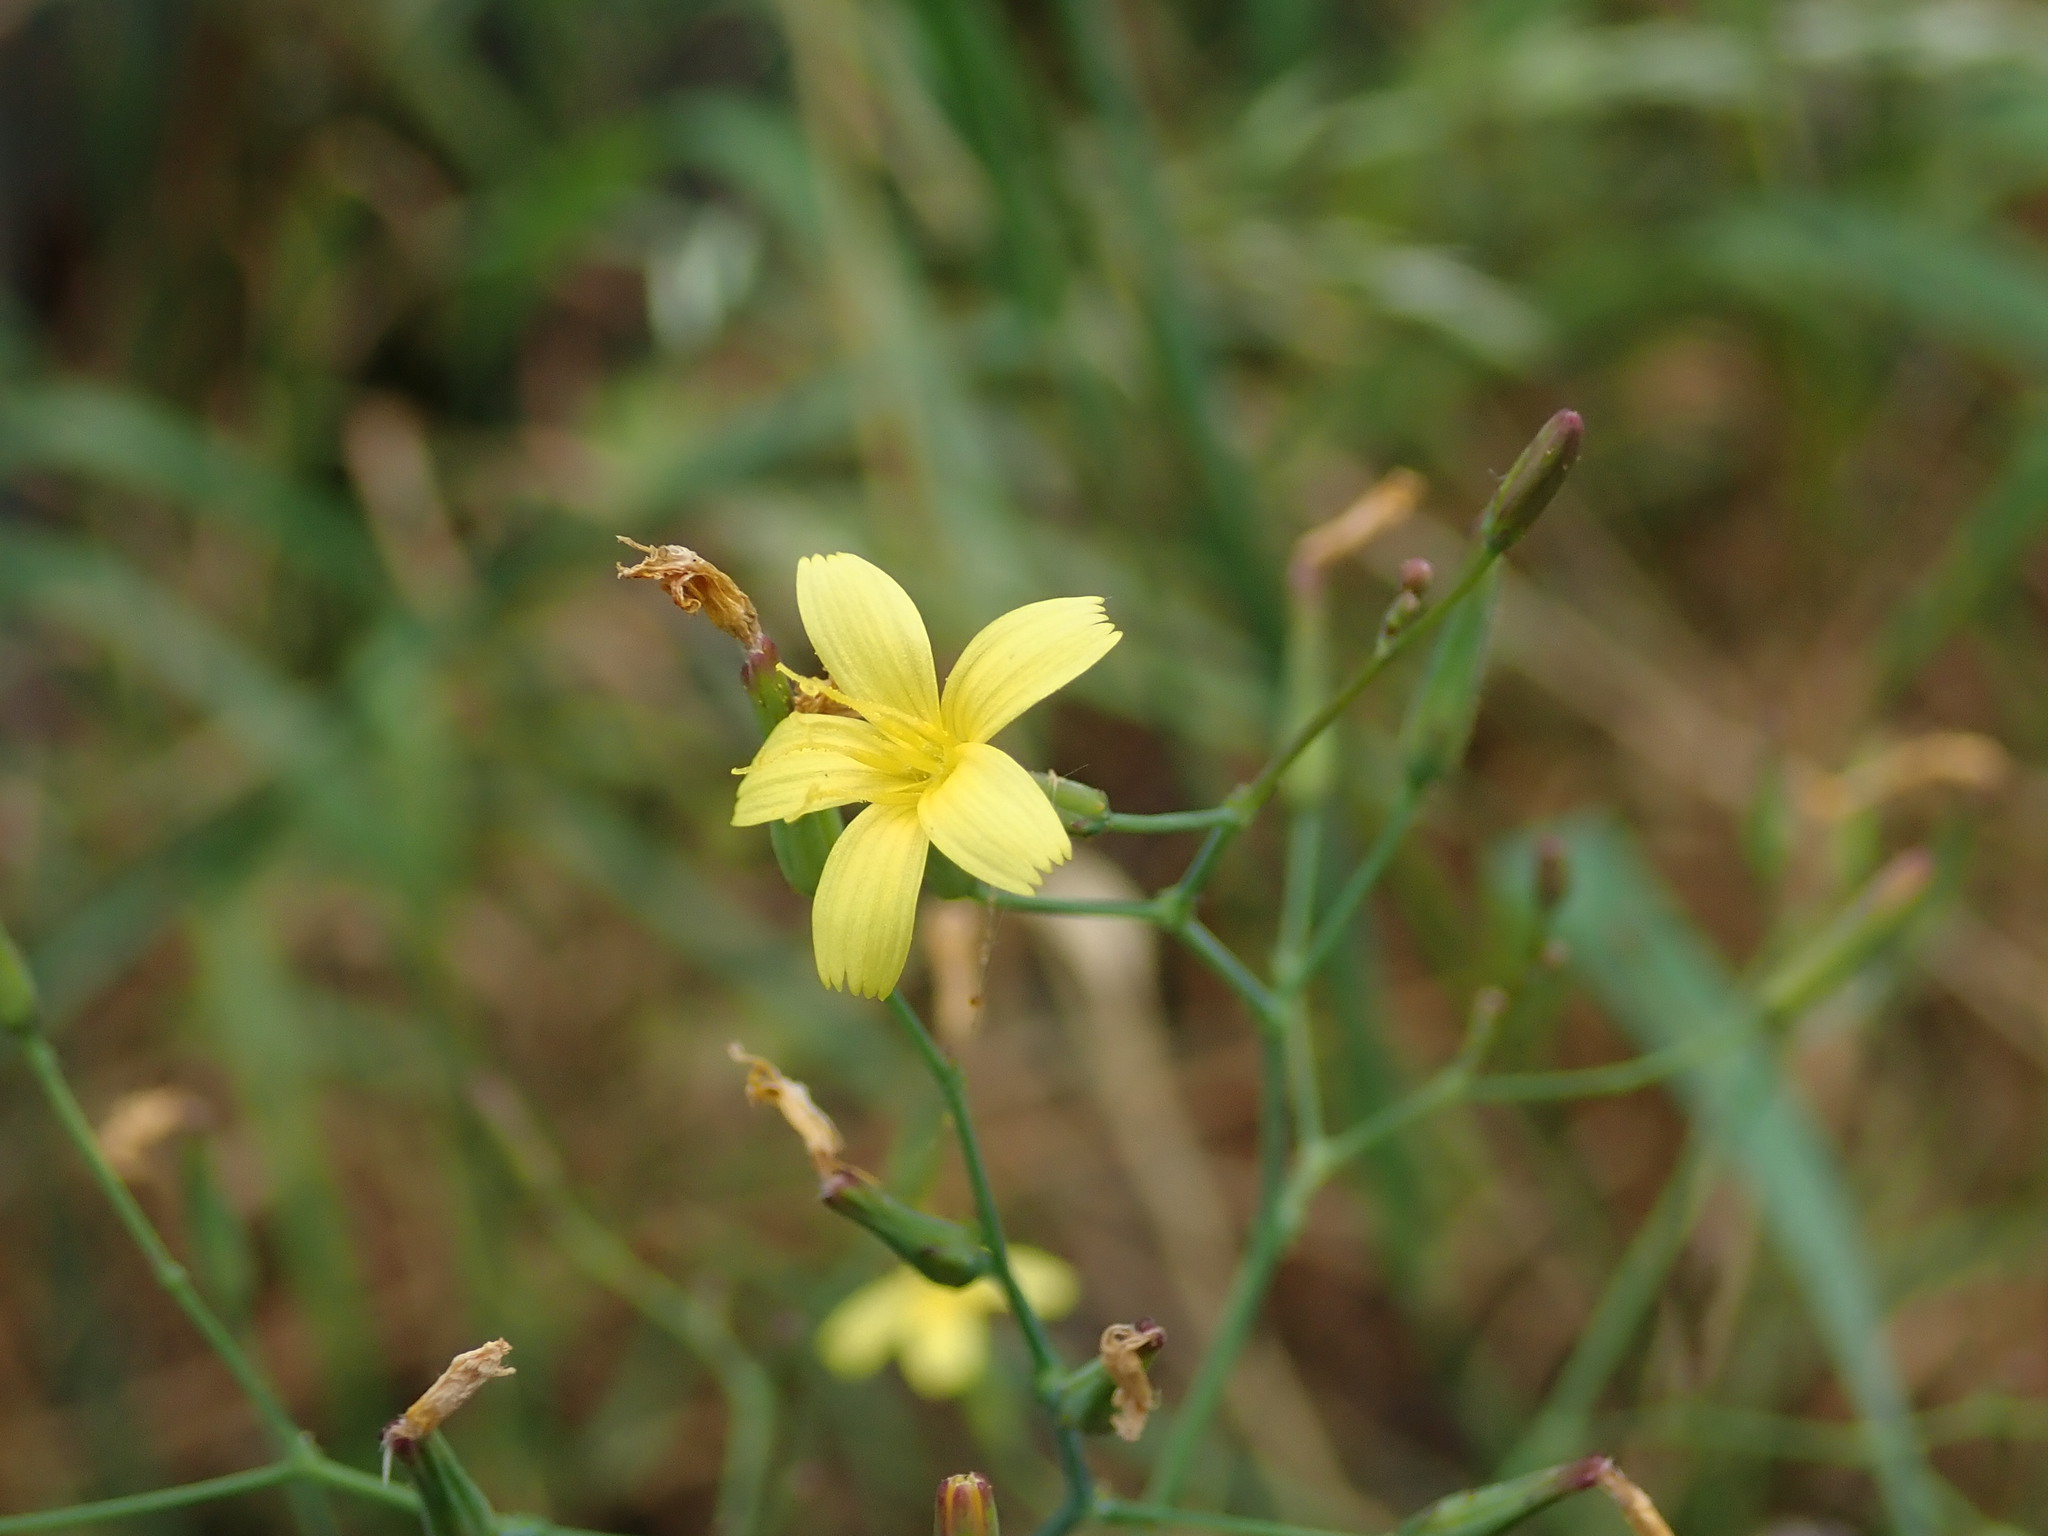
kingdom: Plantae
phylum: Tracheophyta
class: Magnoliopsida
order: Asterales
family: Asteraceae
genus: Mycelis
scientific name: Mycelis muralis
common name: Wall lettuce
